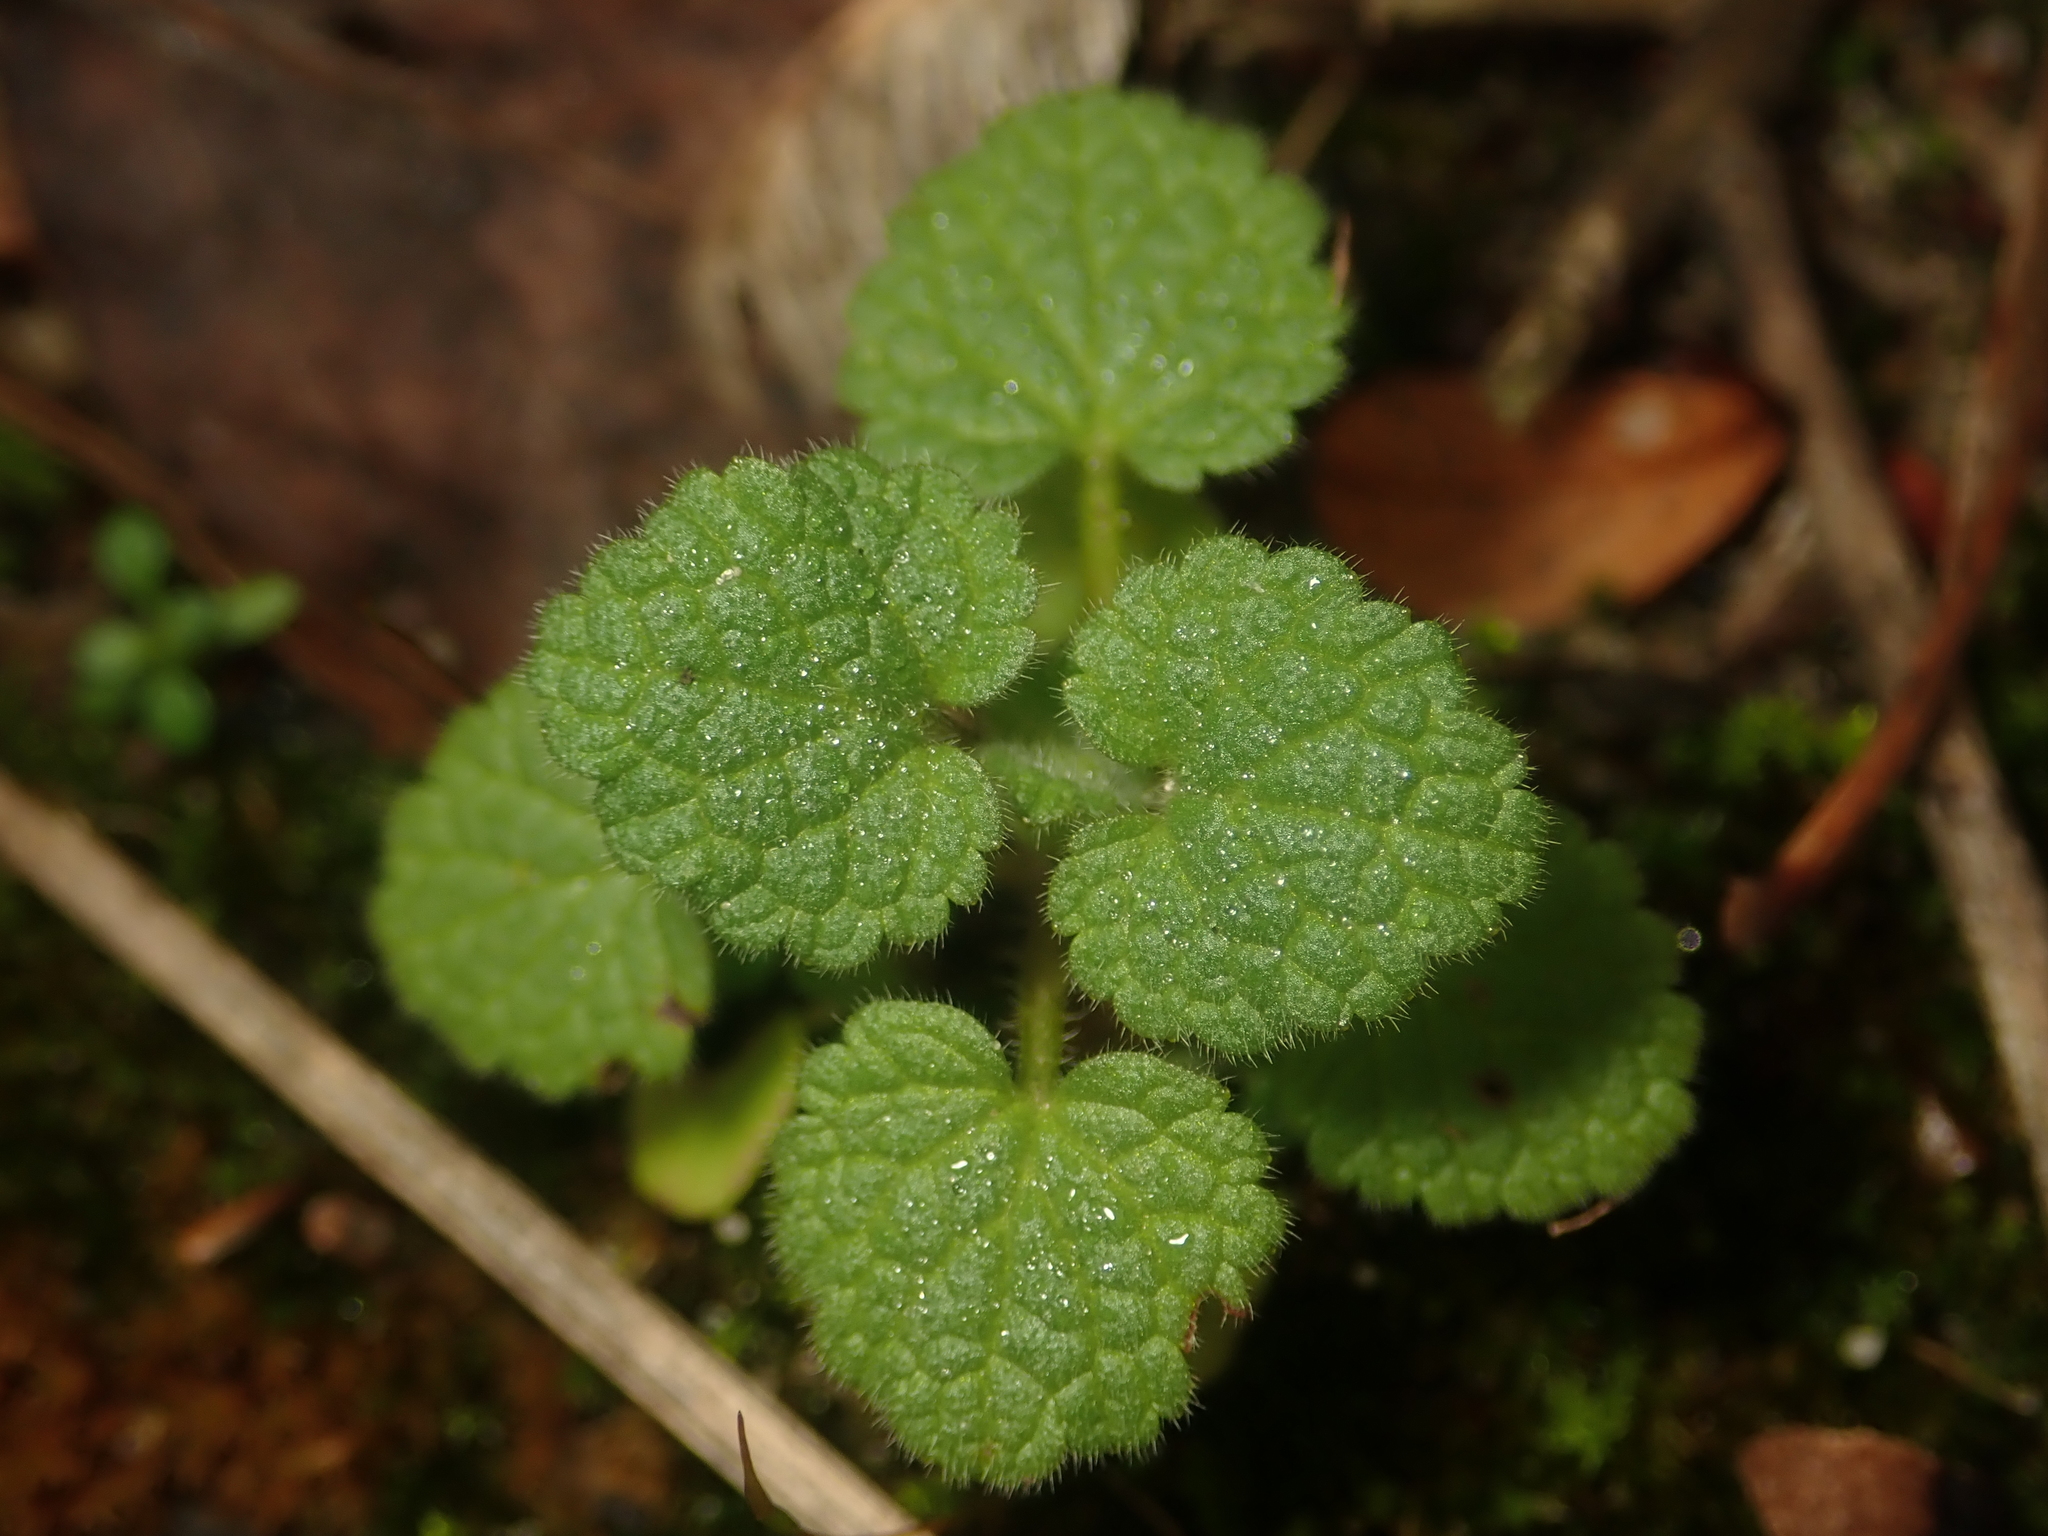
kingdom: Plantae
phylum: Tracheophyta
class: Magnoliopsida
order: Lamiales
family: Lamiaceae
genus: Lamium
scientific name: Lamium purpureum
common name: Red dead-nettle
